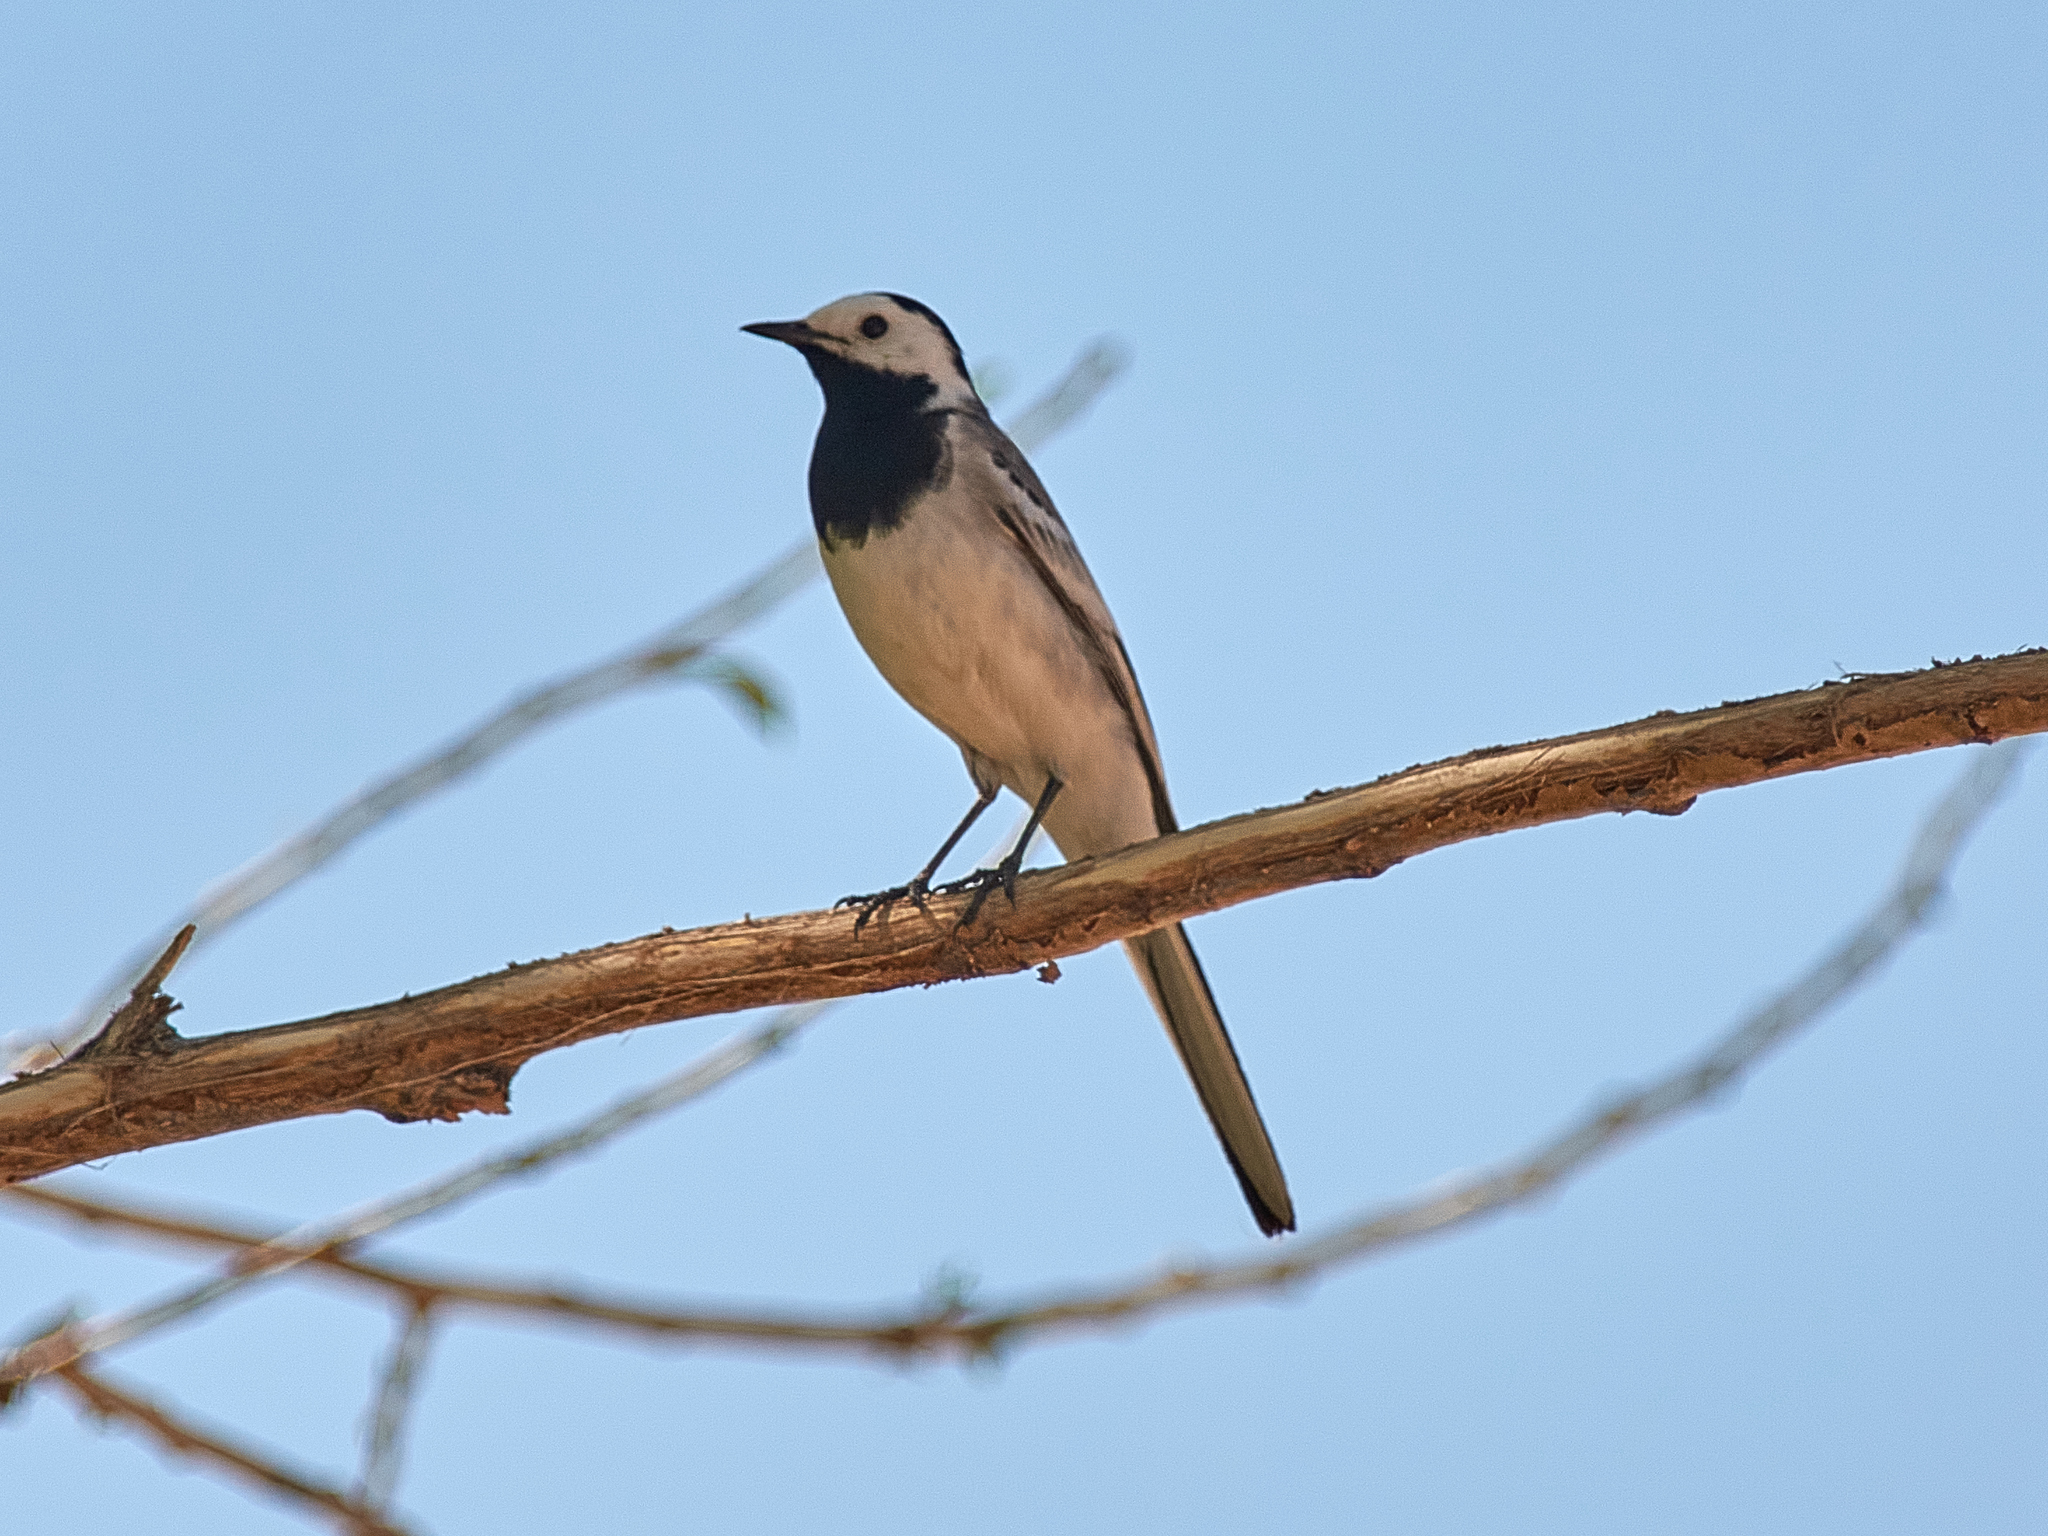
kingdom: Animalia
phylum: Chordata
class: Aves
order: Passeriformes
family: Motacillidae
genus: Motacilla
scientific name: Motacilla alba
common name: White wagtail
